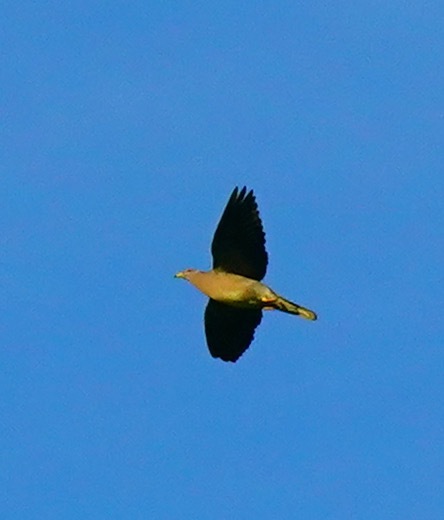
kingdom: Animalia
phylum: Chordata
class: Aves
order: Columbiformes
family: Columbidae
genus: Patagioenas
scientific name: Patagioenas fasciata
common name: Band-tailed pigeon
